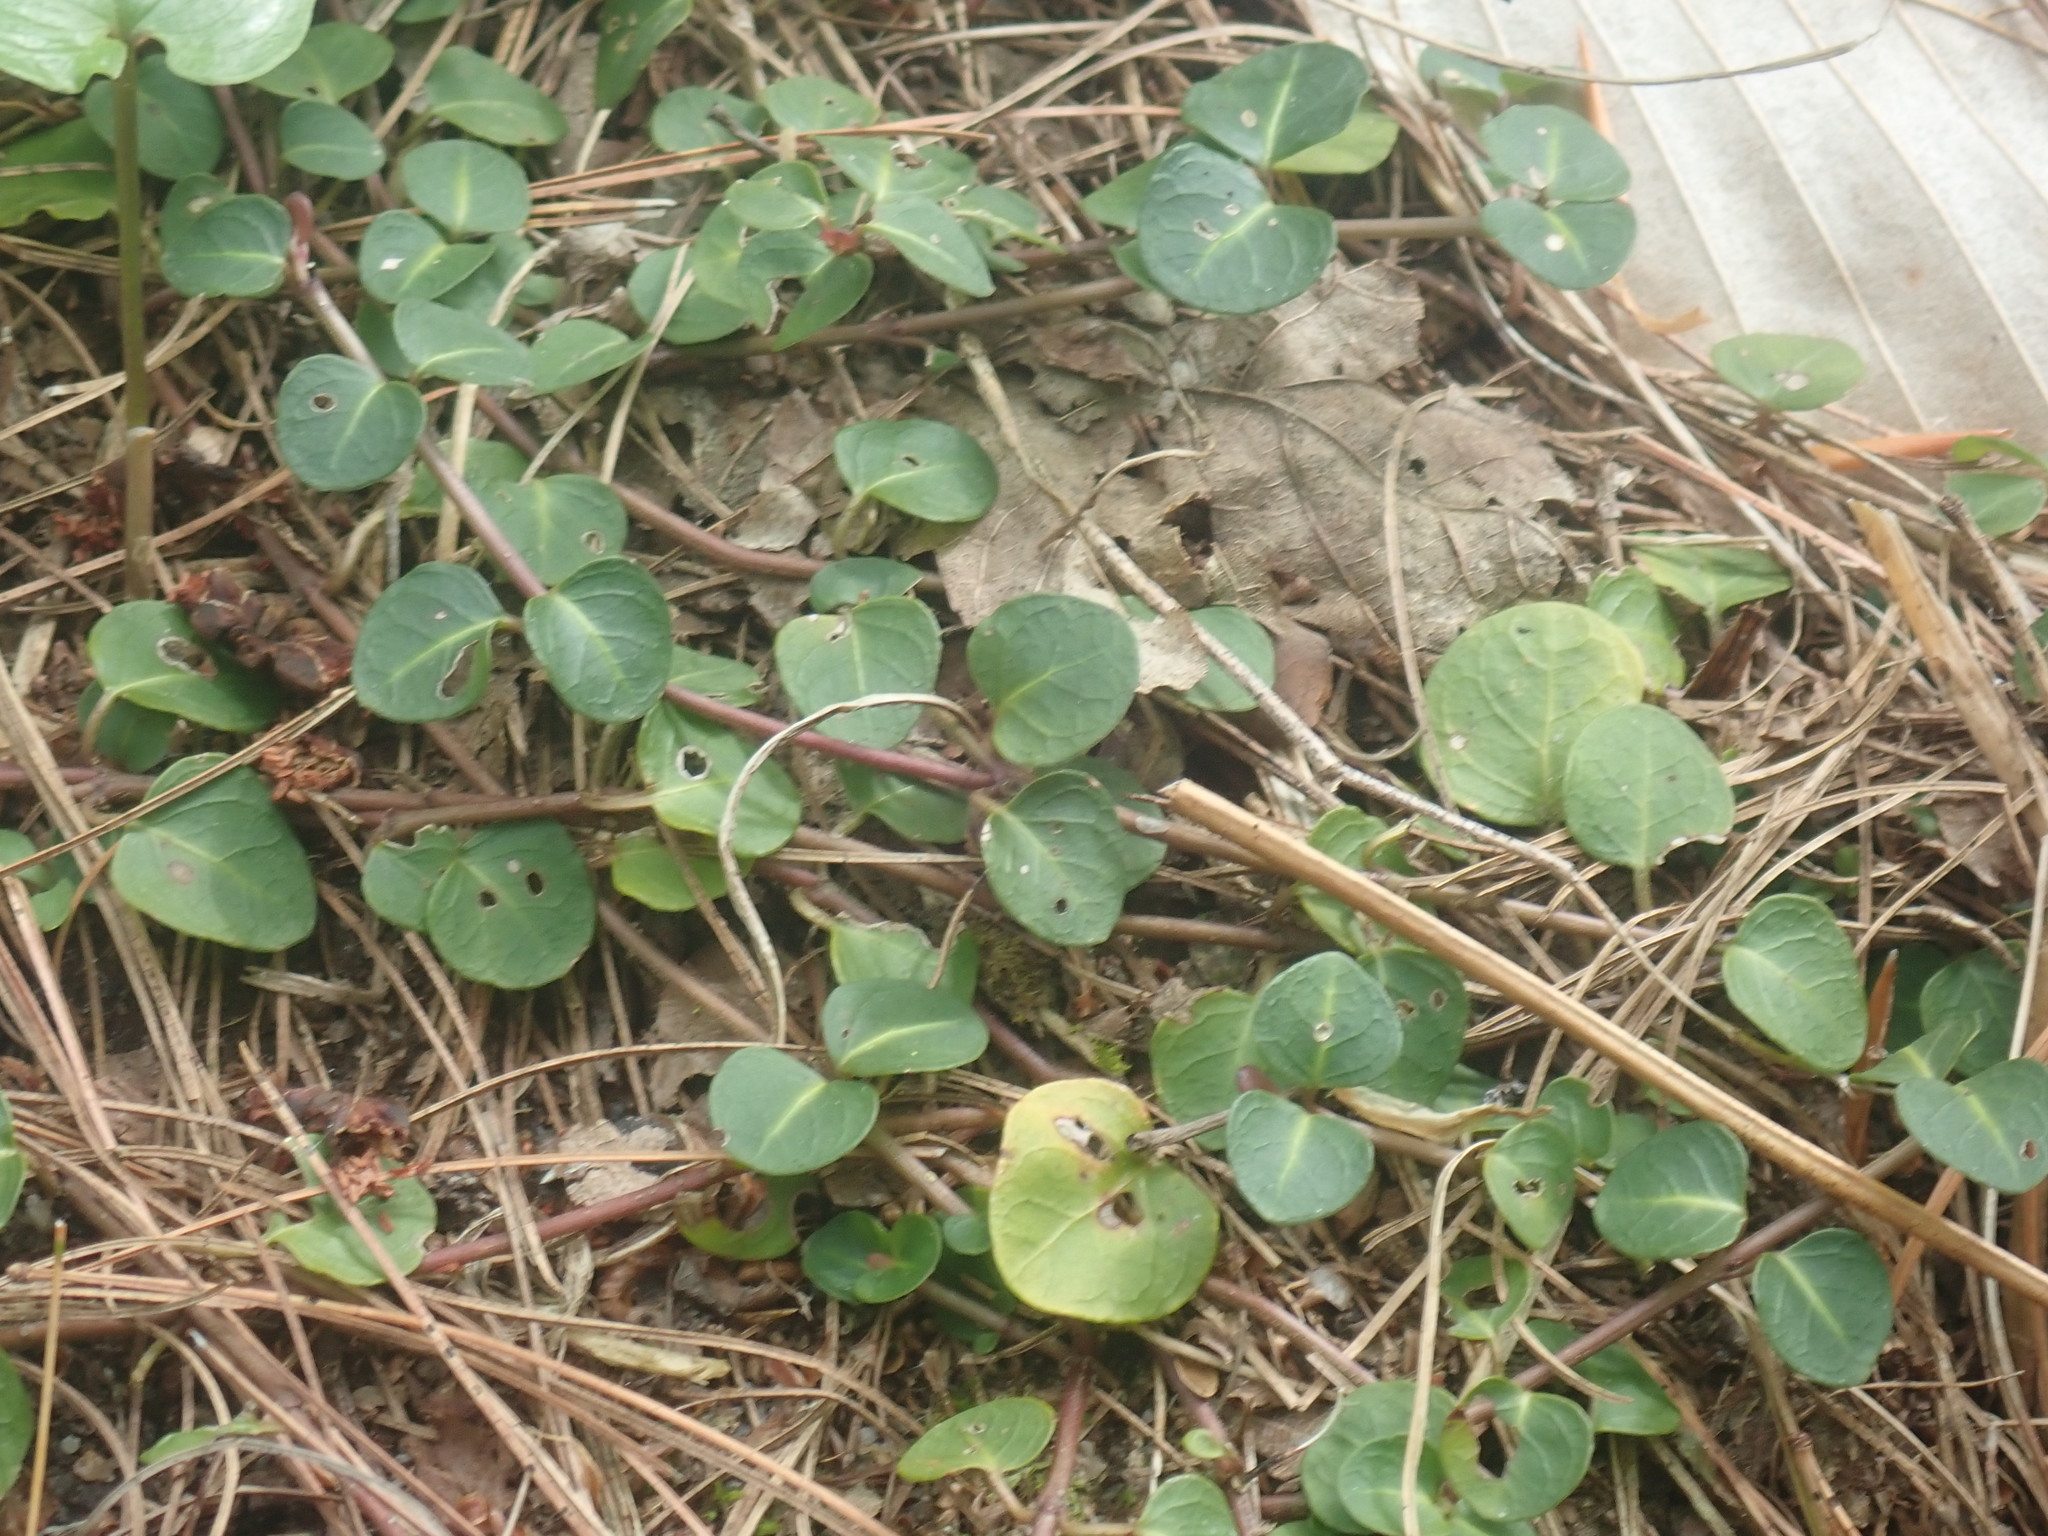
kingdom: Plantae
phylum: Tracheophyta
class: Magnoliopsida
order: Gentianales
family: Rubiaceae
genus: Mitchella
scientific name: Mitchella repens
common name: Partridge-berry
